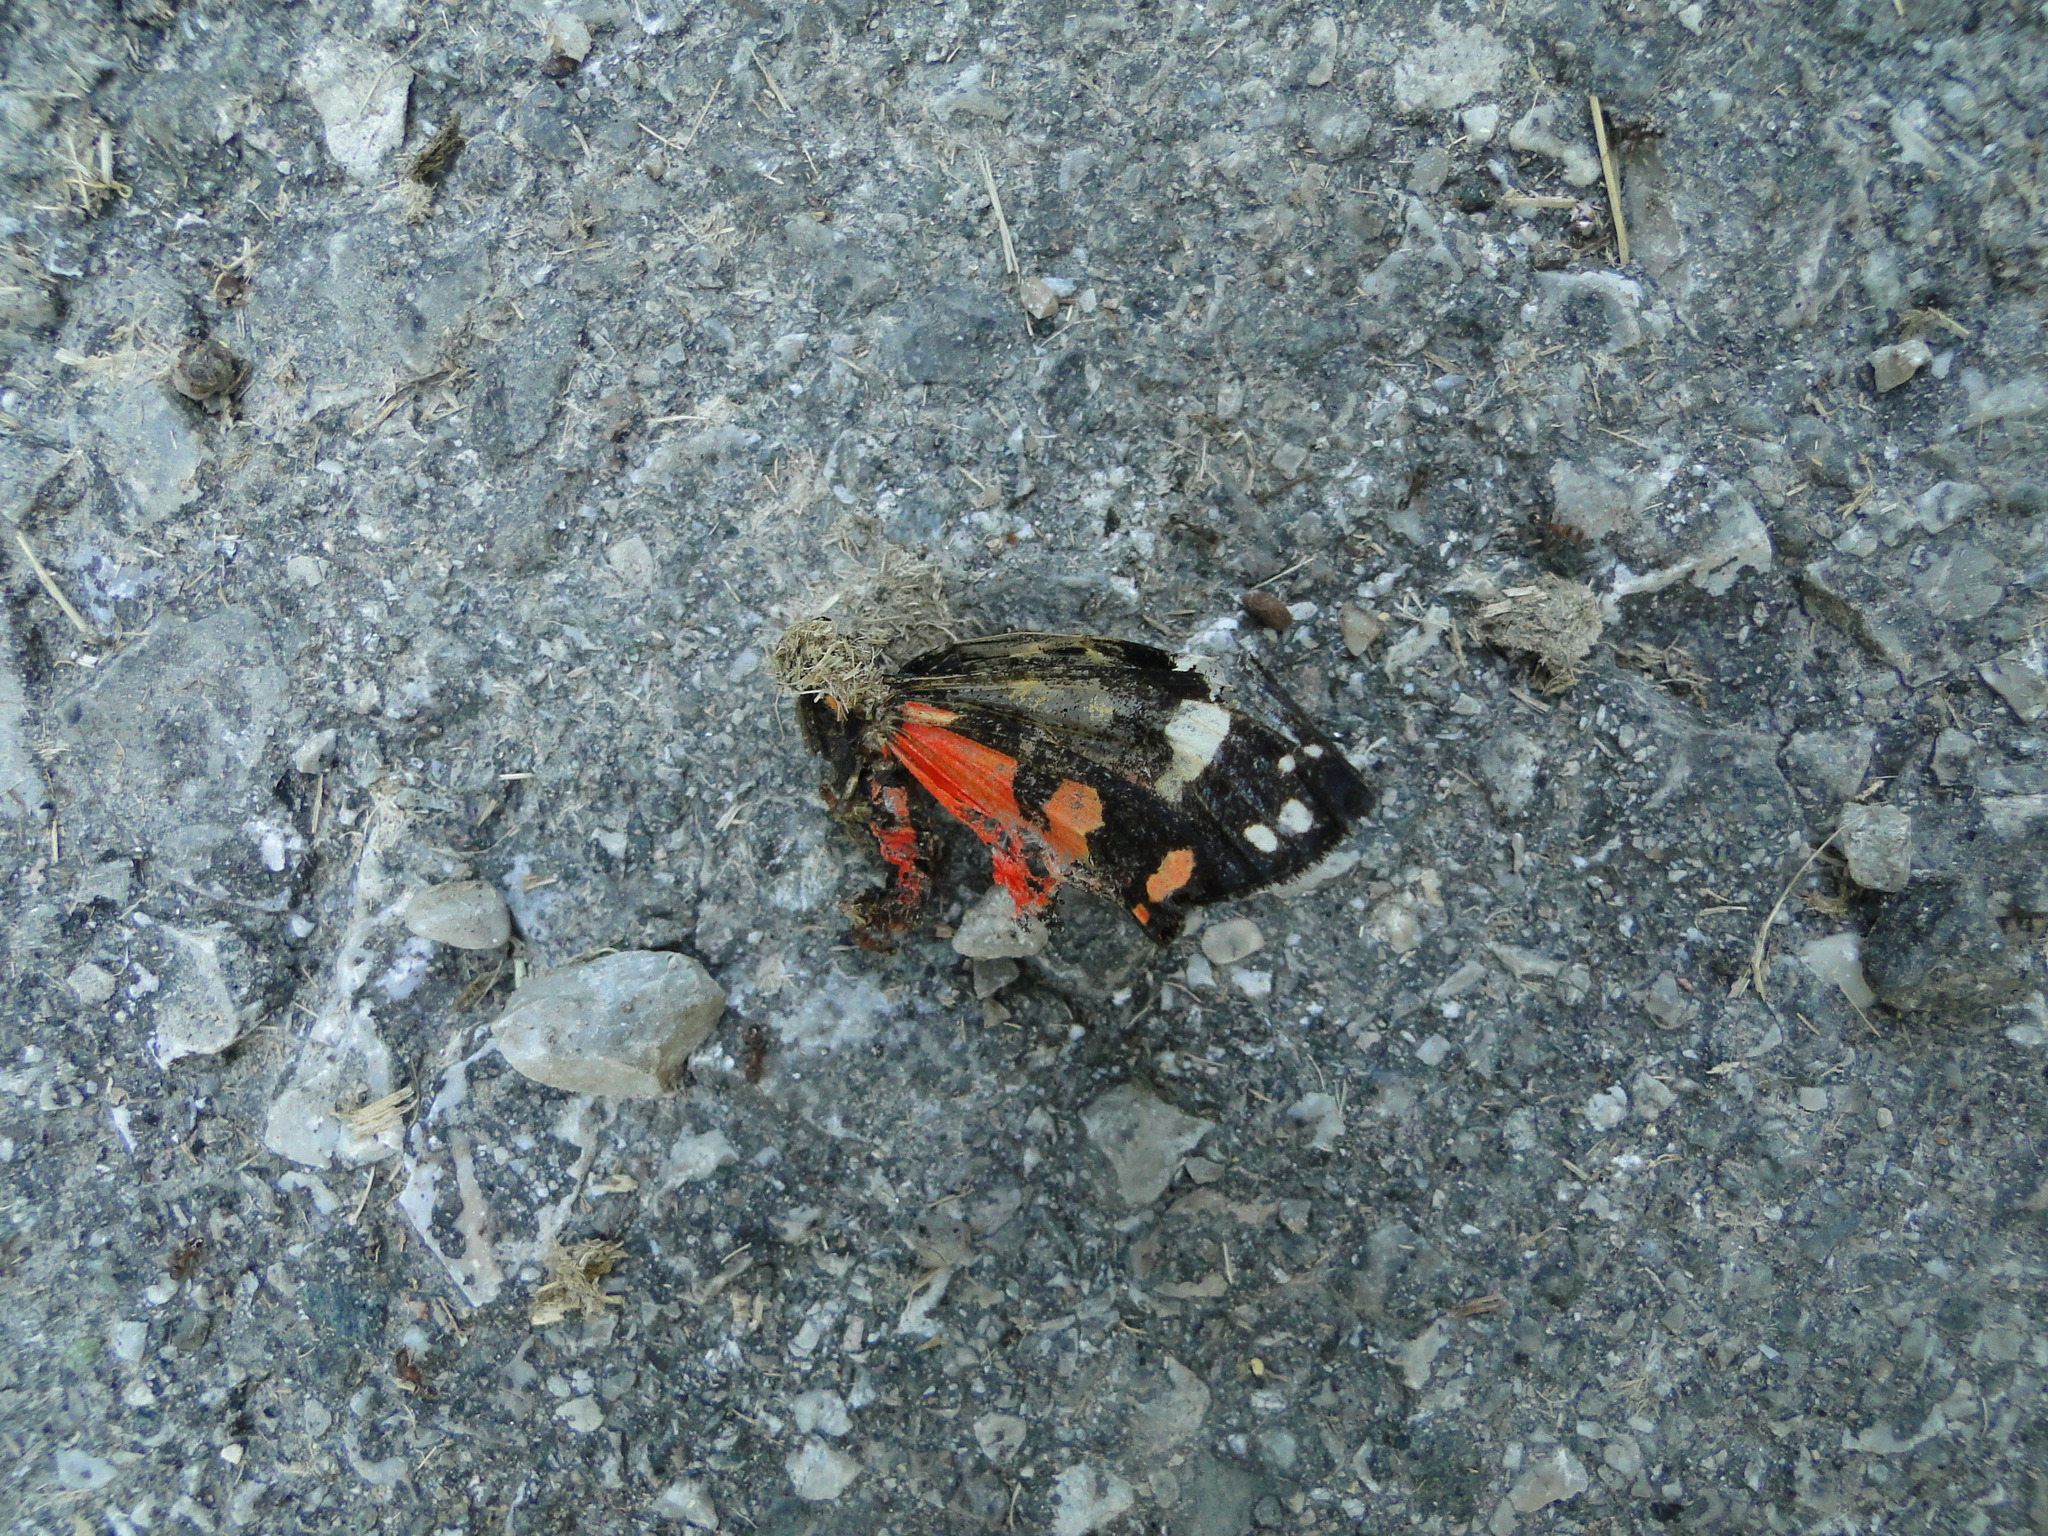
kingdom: Animalia
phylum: Arthropoda
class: Insecta
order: Lepidoptera
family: Erebidae
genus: Callimorpha
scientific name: Callimorpha dominula
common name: Scarlet tiger
